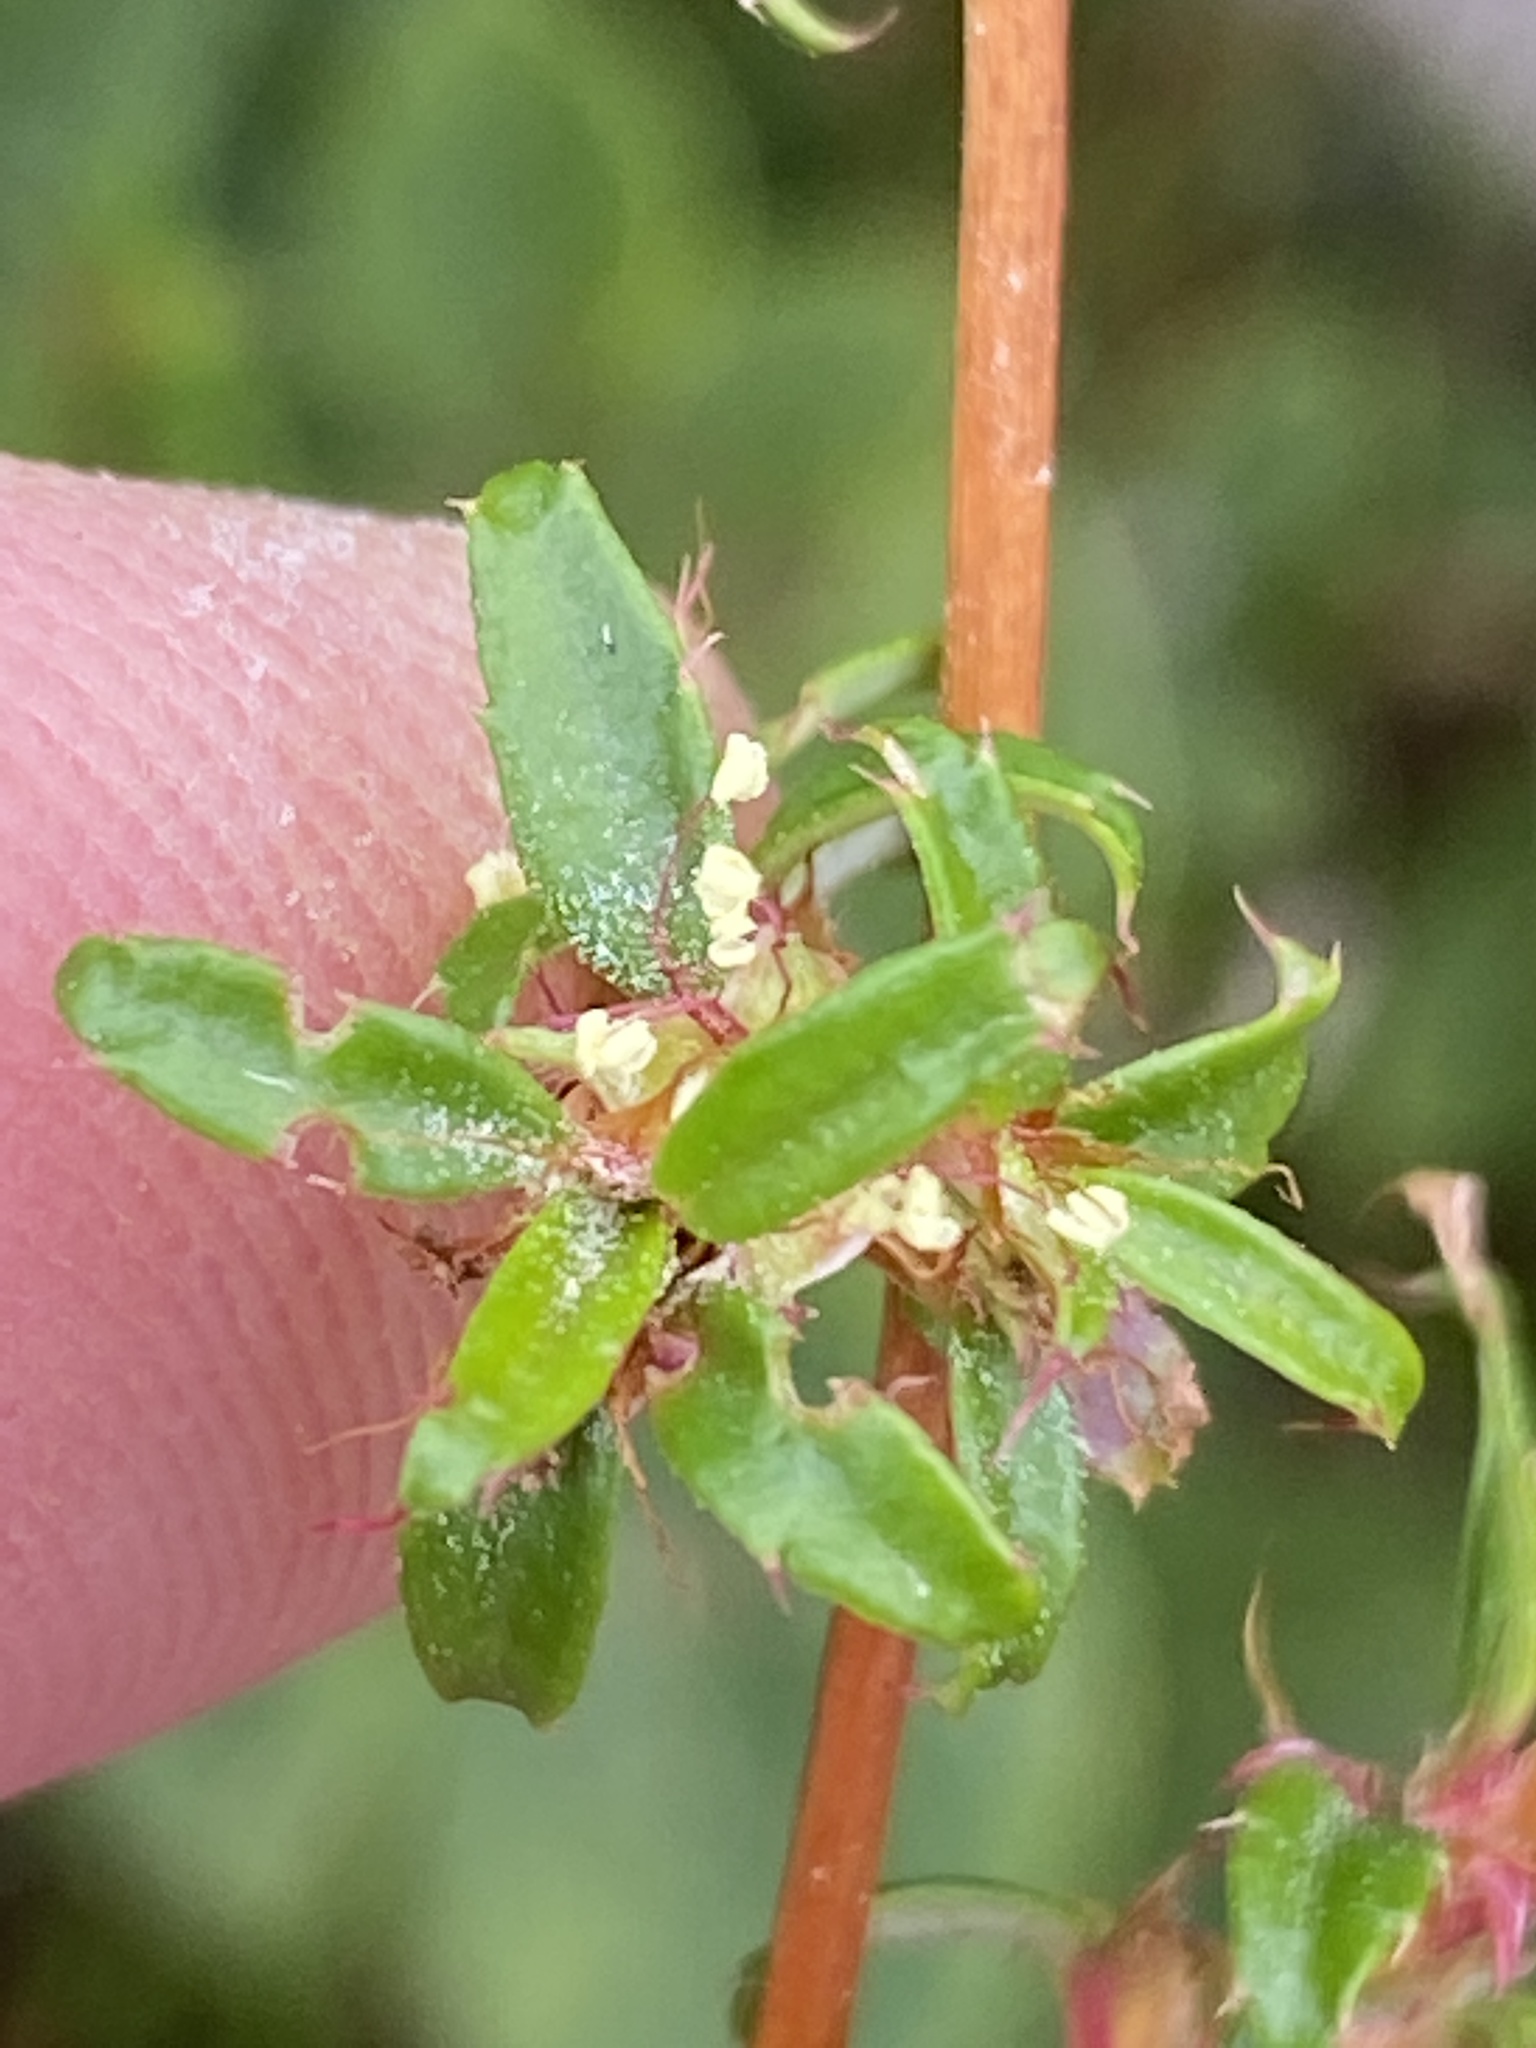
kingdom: Plantae
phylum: Tracheophyta
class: Magnoliopsida
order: Rosales
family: Rosaceae
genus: Cliffortia
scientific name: Cliffortia ferruginea
